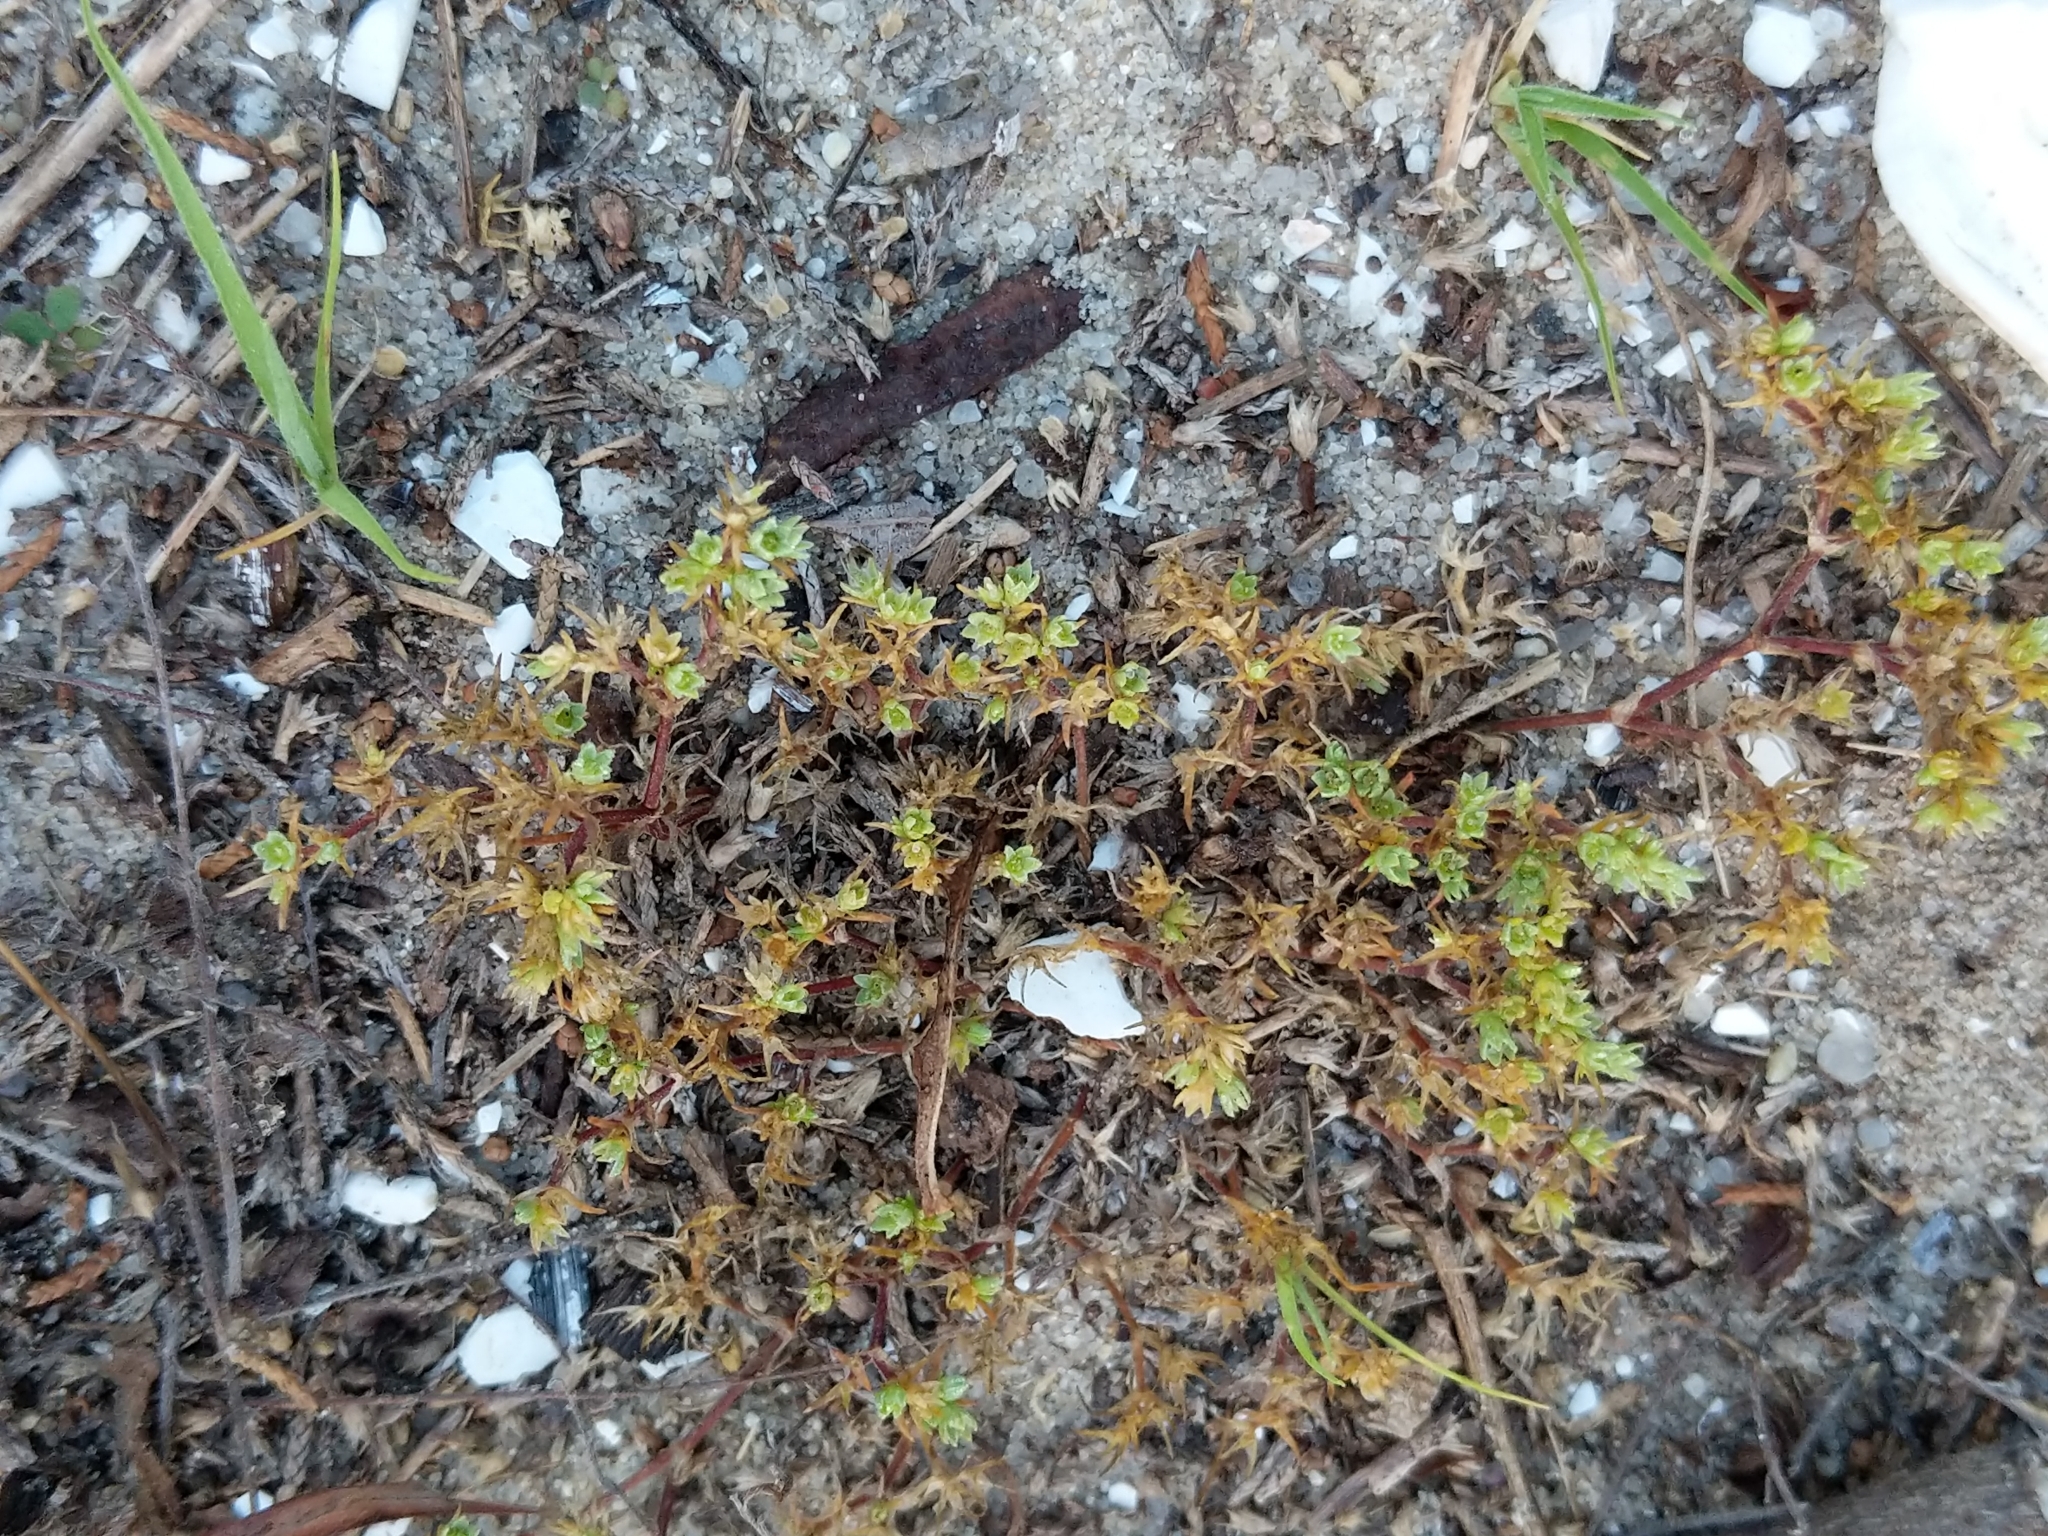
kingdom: Plantae
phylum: Tracheophyta
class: Magnoliopsida
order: Caryophyllales
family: Caryophyllaceae
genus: Scleranthus
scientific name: Scleranthus annuus
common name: Annual knawel
